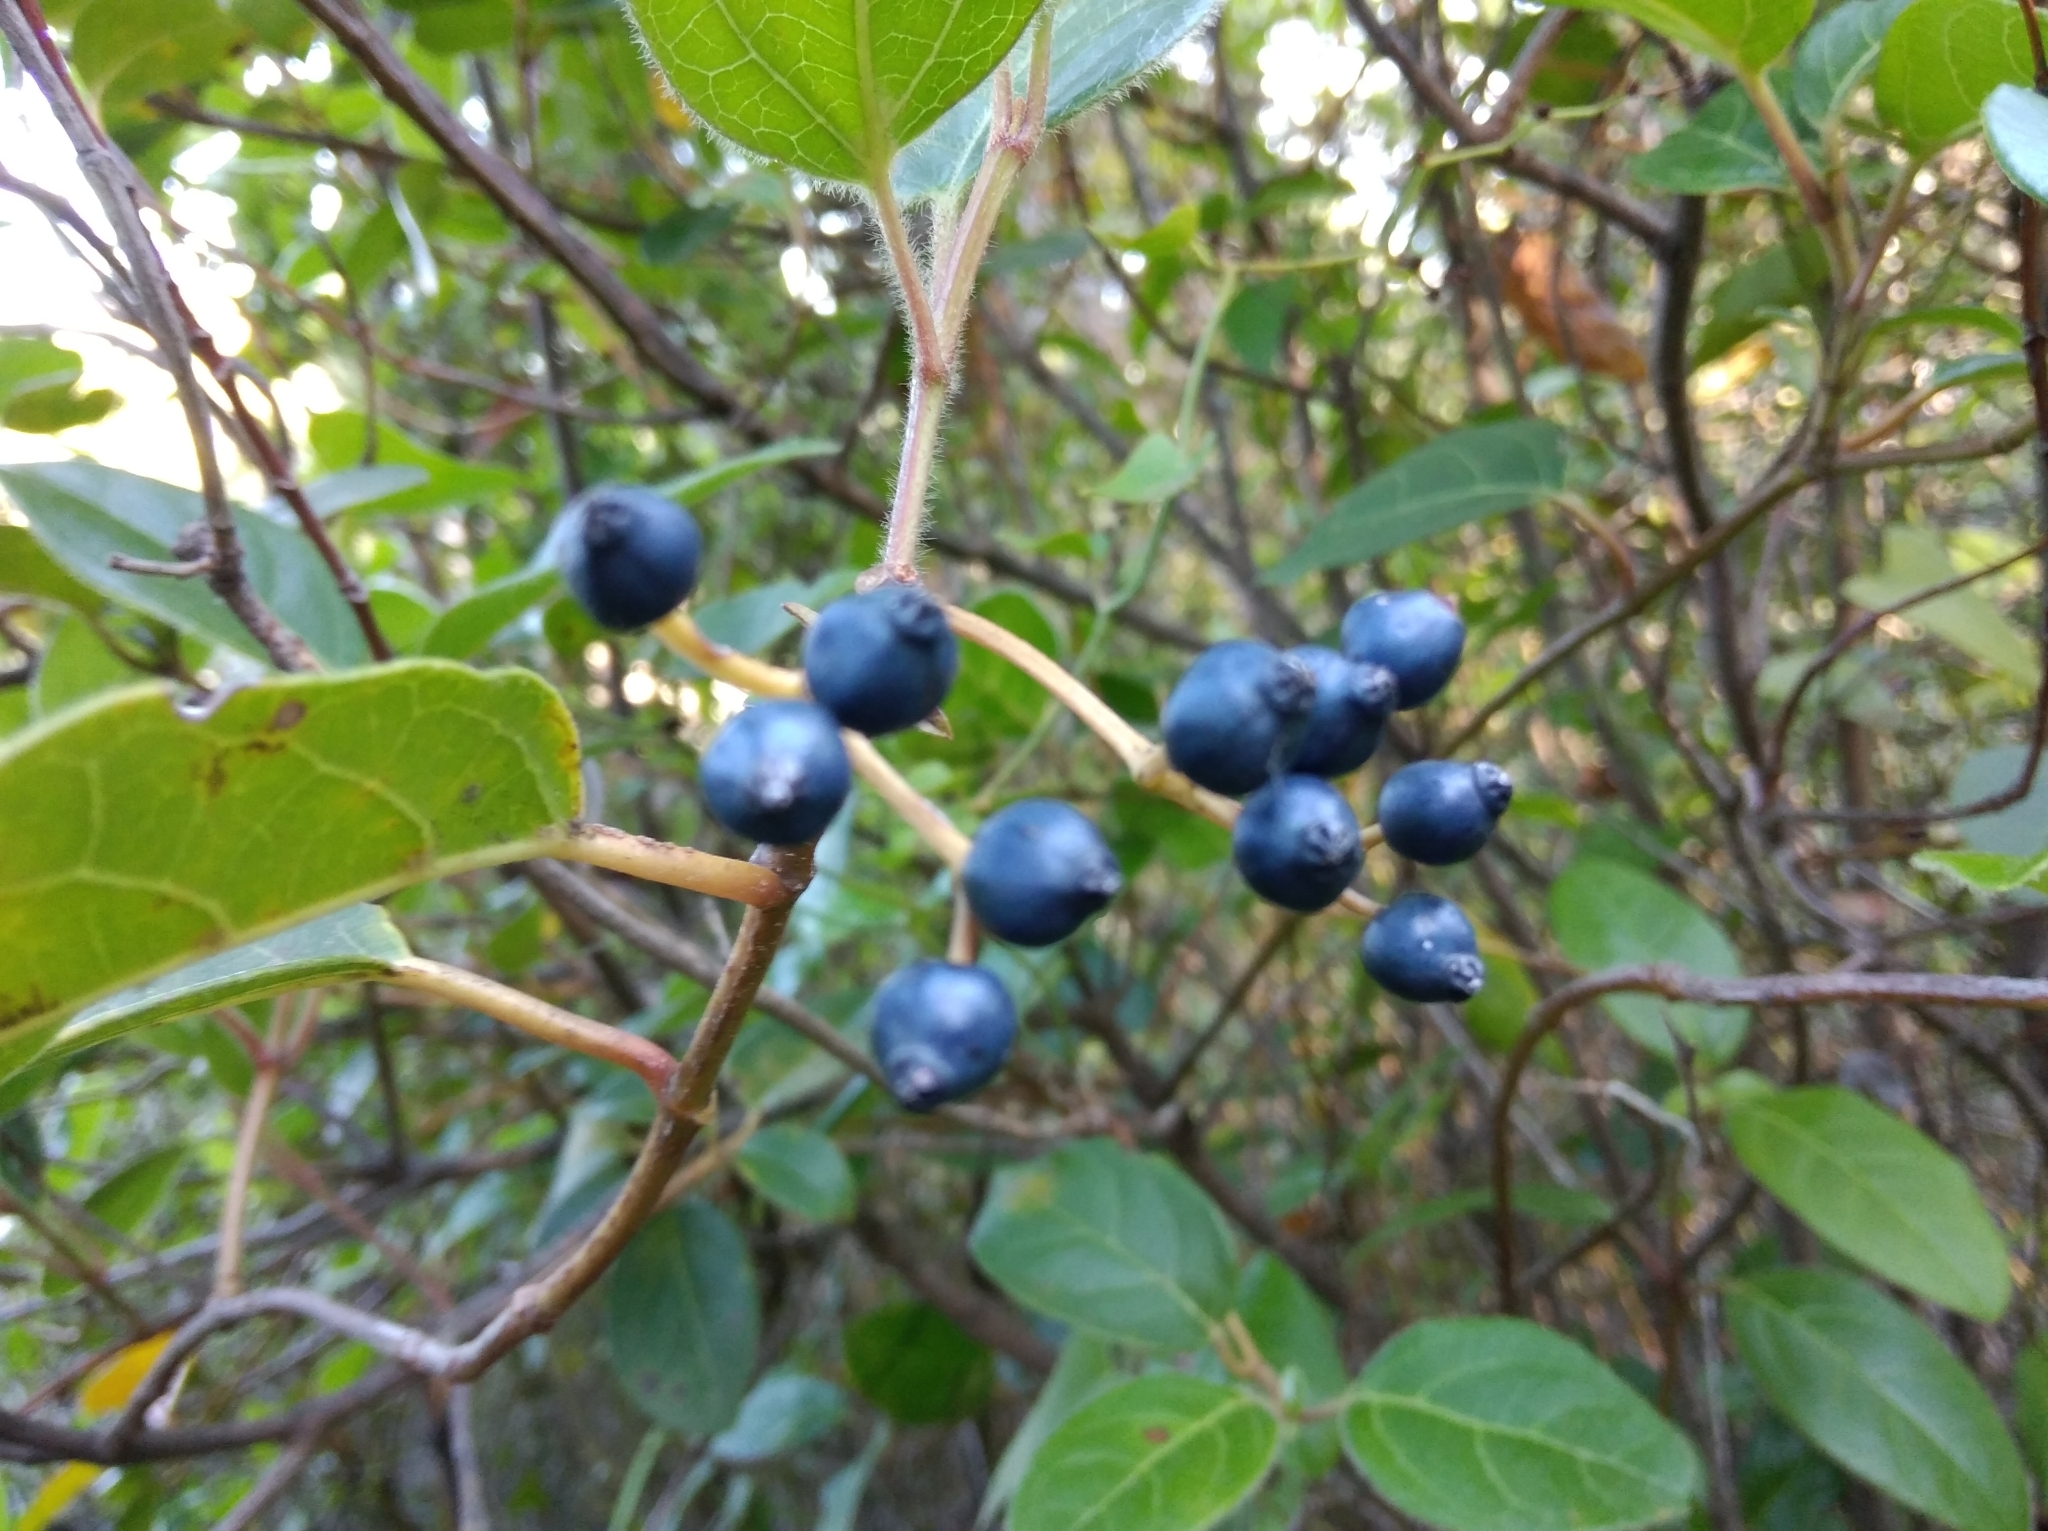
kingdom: Plantae
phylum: Tracheophyta
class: Magnoliopsida
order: Dipsacales
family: Viburnaceae
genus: Viburnum
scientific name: Viburnum tinus
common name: Laurustinus
